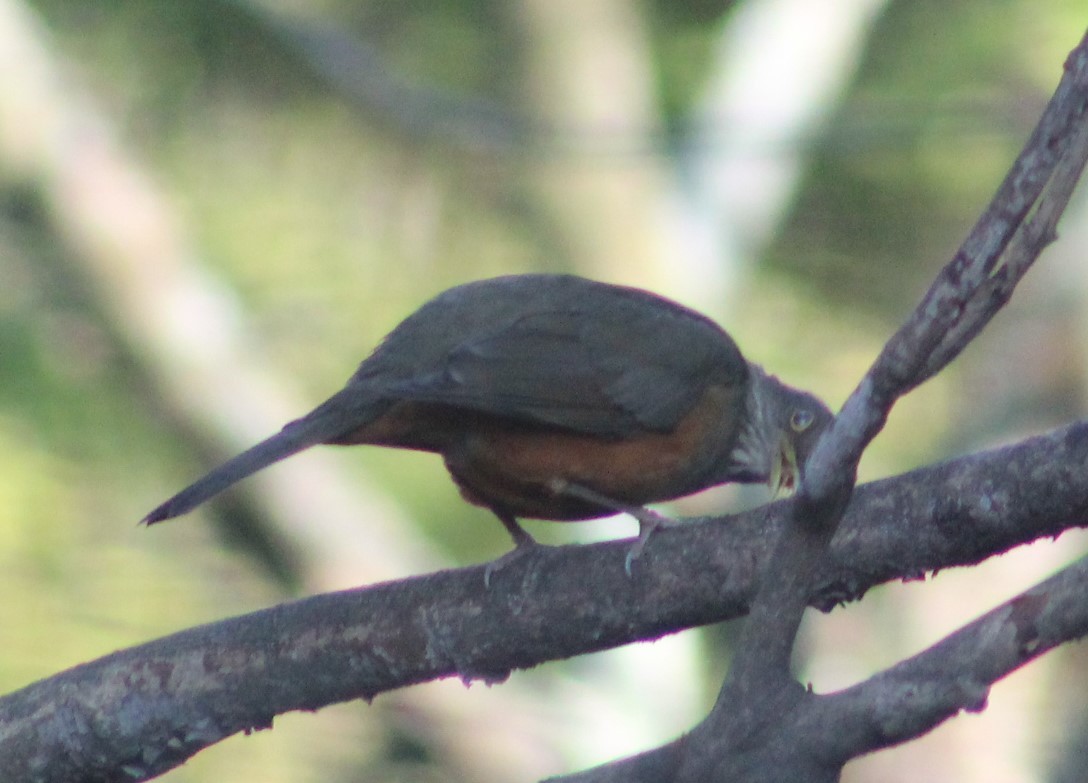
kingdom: Animalia
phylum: Chordata
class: Aves
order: Passeriformes
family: Turdidae
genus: Turdus
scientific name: Turdus rufiventris
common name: Rufous-bellied thrush
